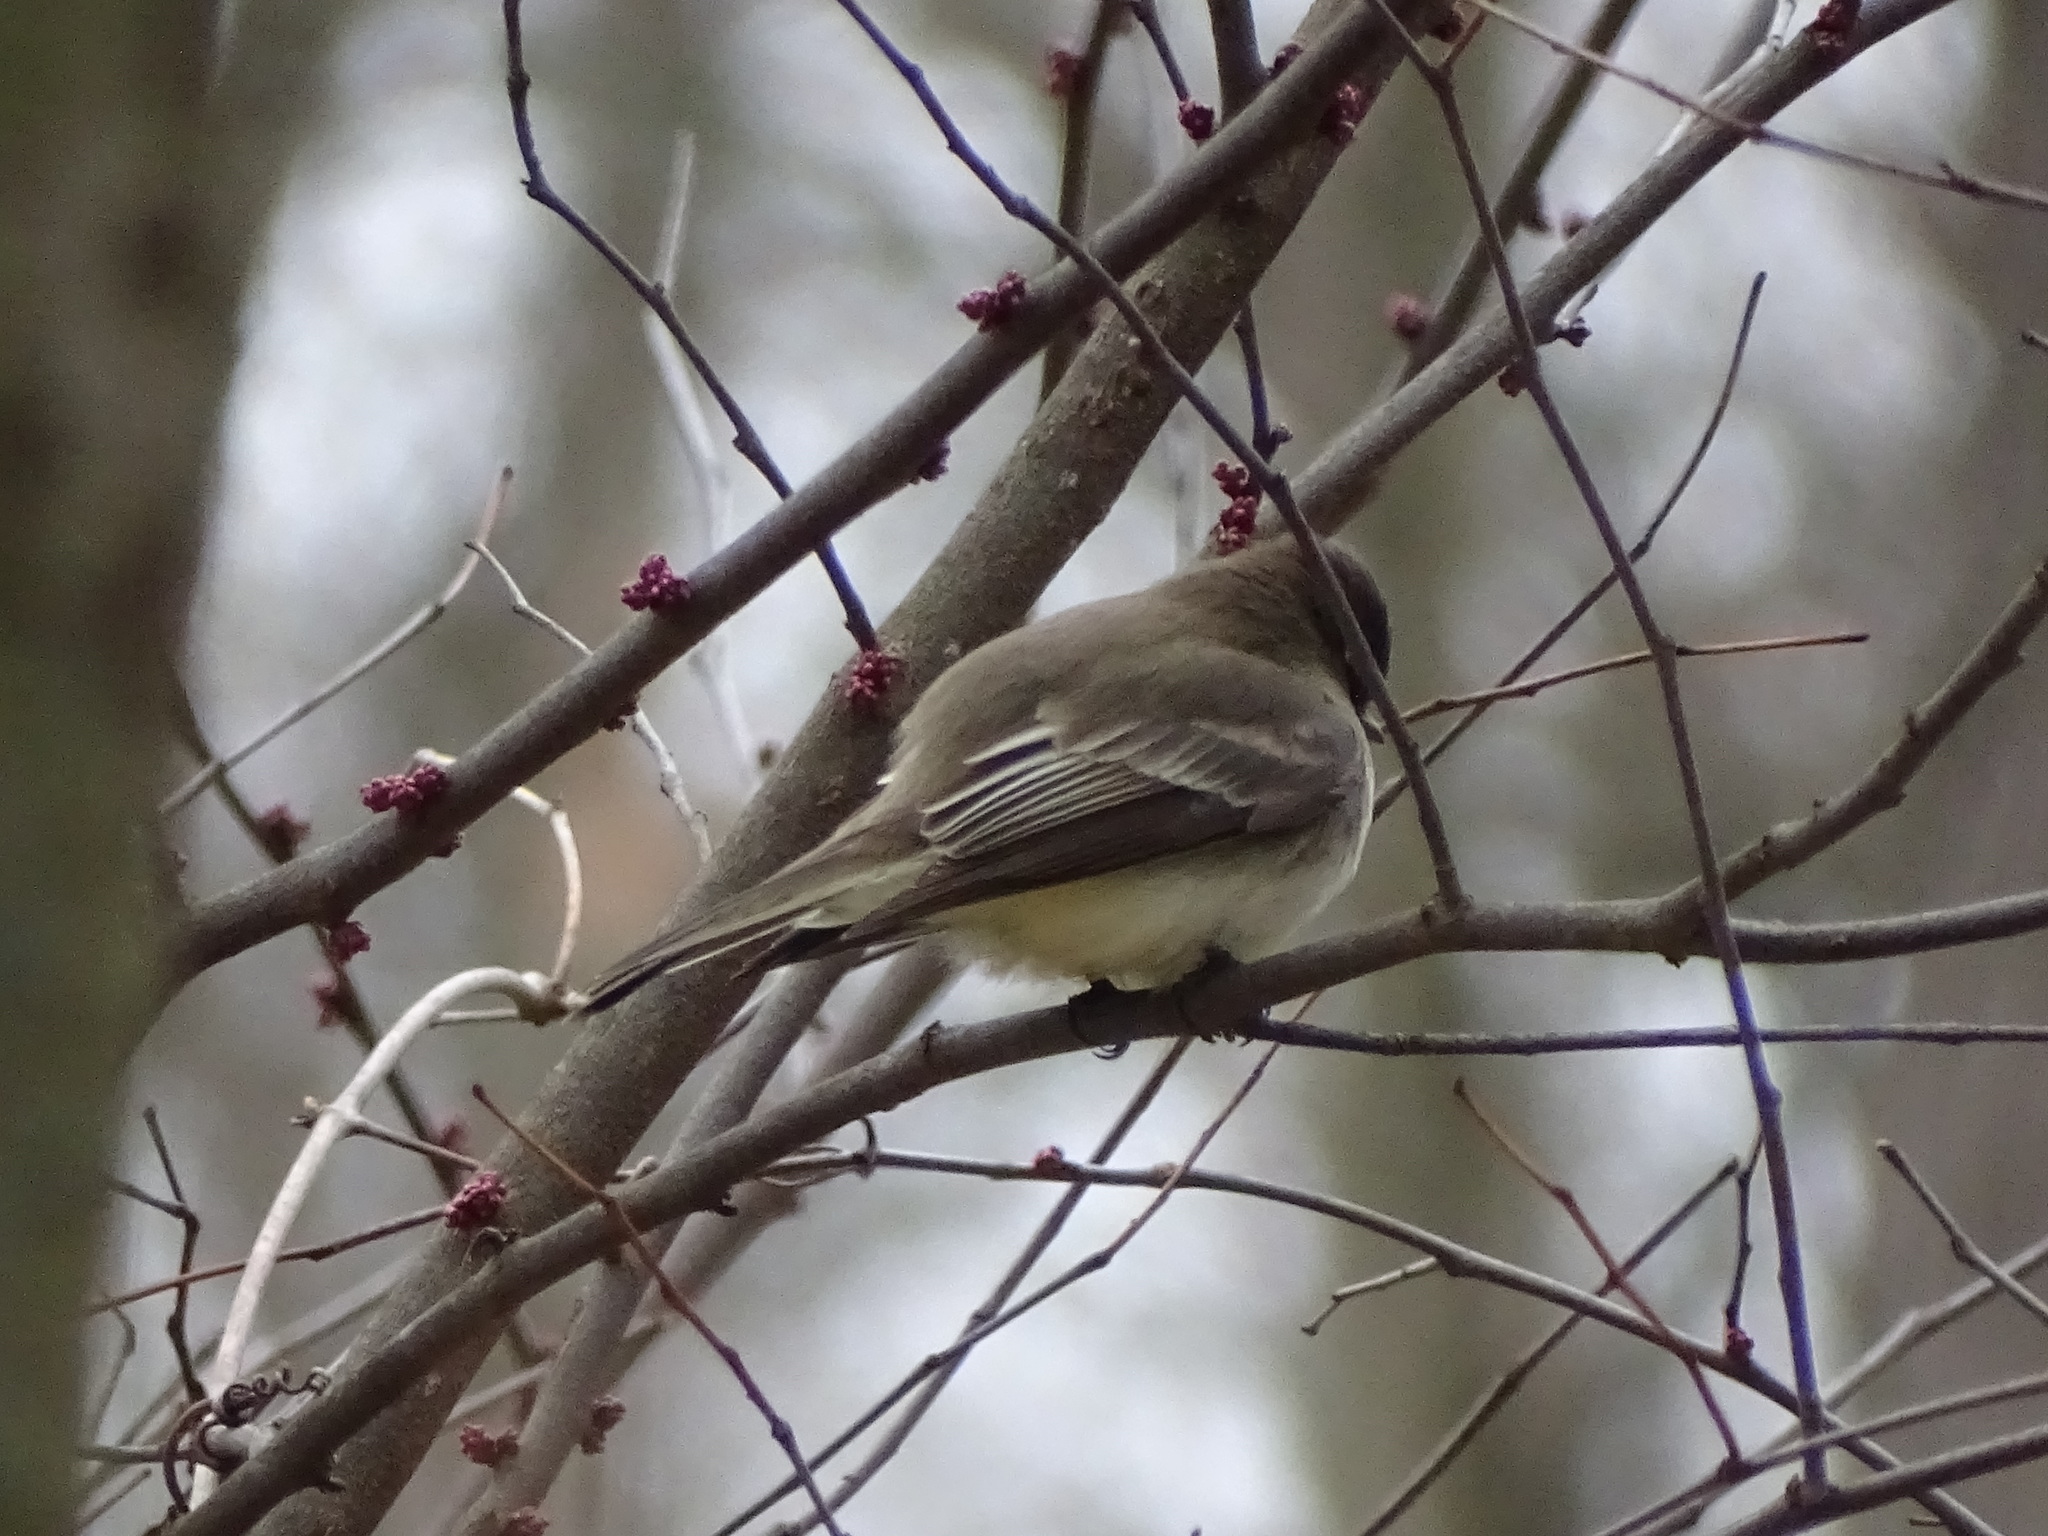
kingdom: Animalia
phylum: Chordata
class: Aves
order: Passeriformes
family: Tyrannidae
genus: Sayornis
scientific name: Sayornis phoebe
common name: Eastern phoebe
